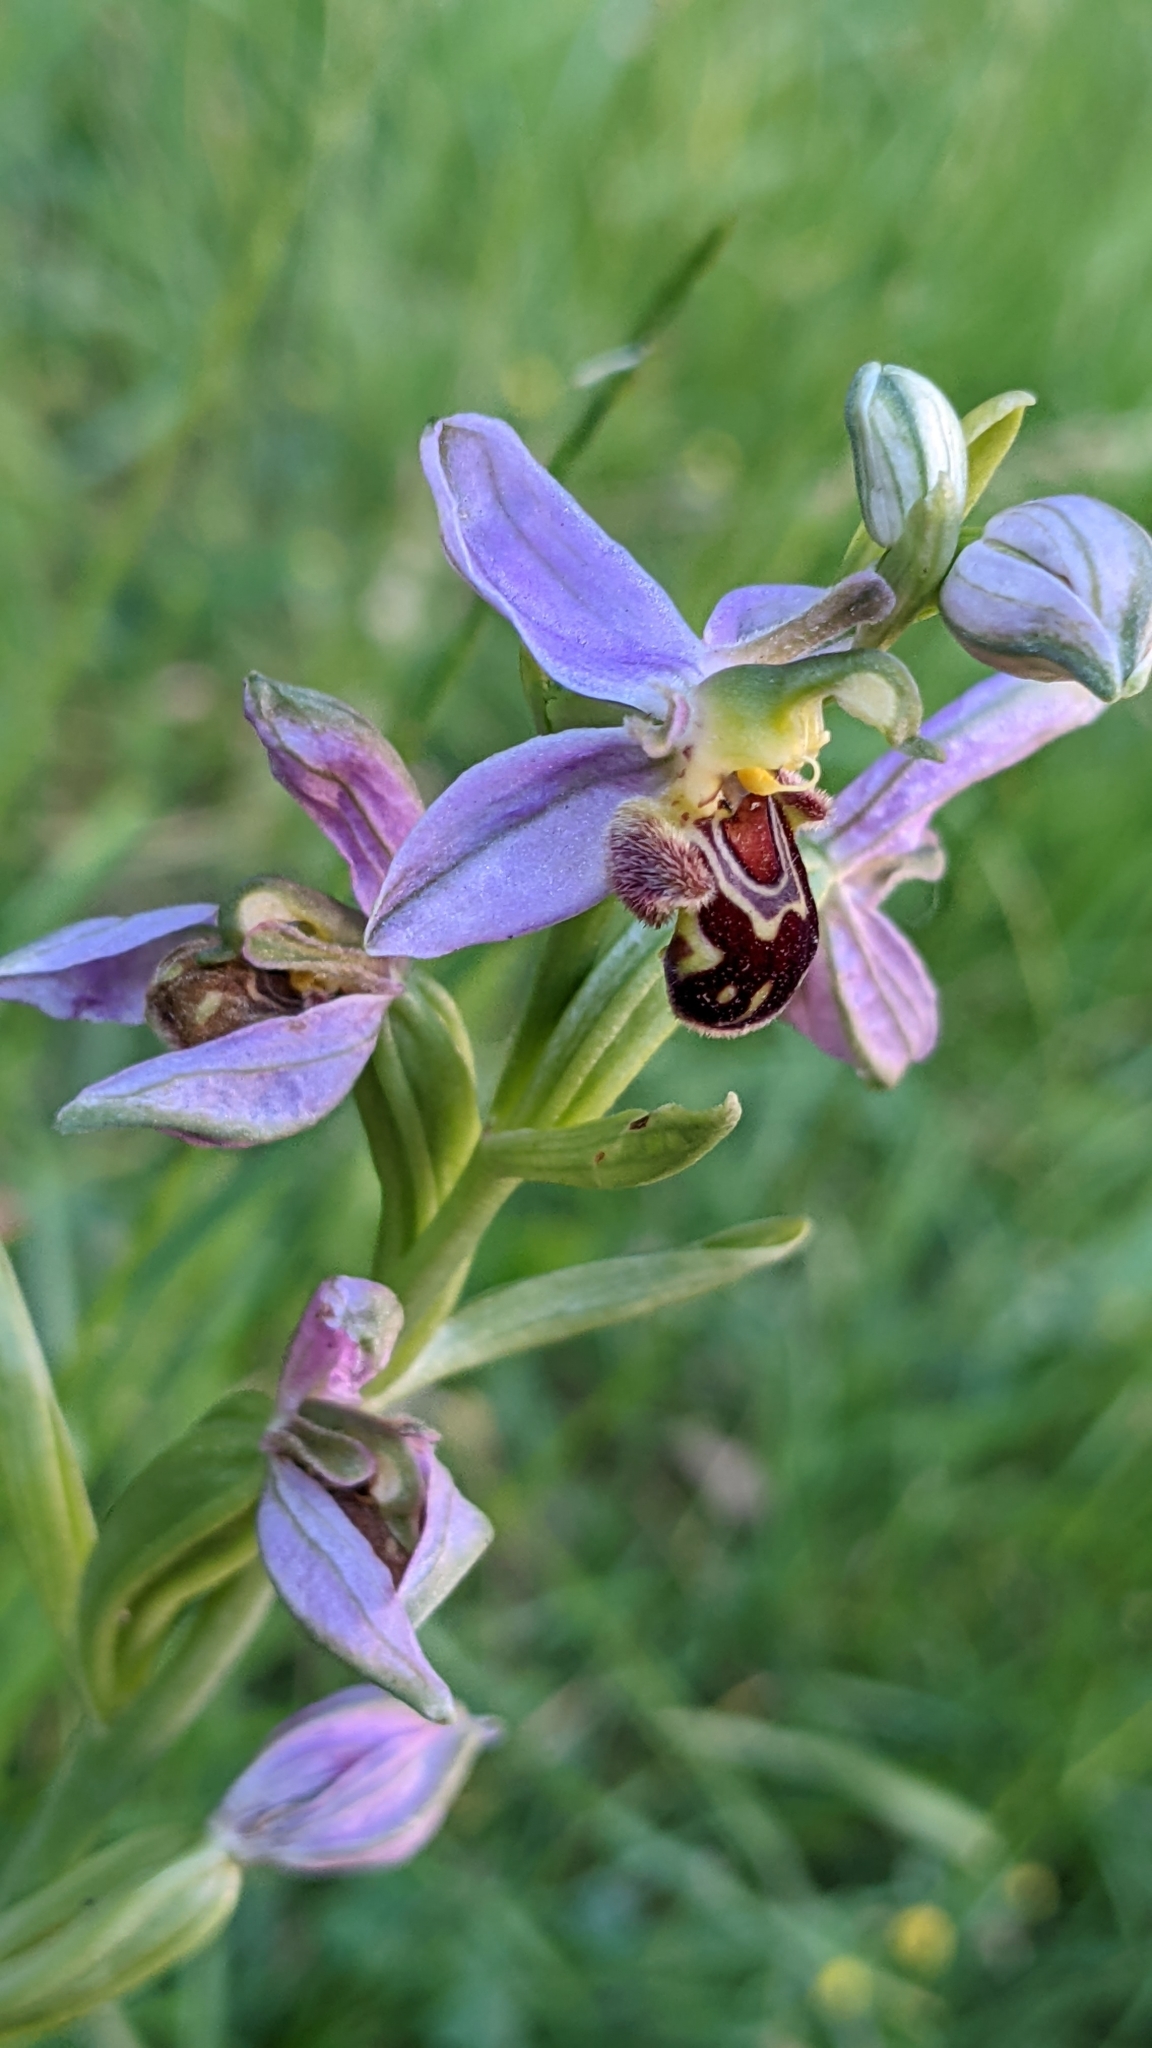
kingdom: Plantae
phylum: Tracheophyta
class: Liliopsida
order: Asparagales
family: Orchidaceae
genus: Ophrys
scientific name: Ophrys apifera
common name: Bee orchid
